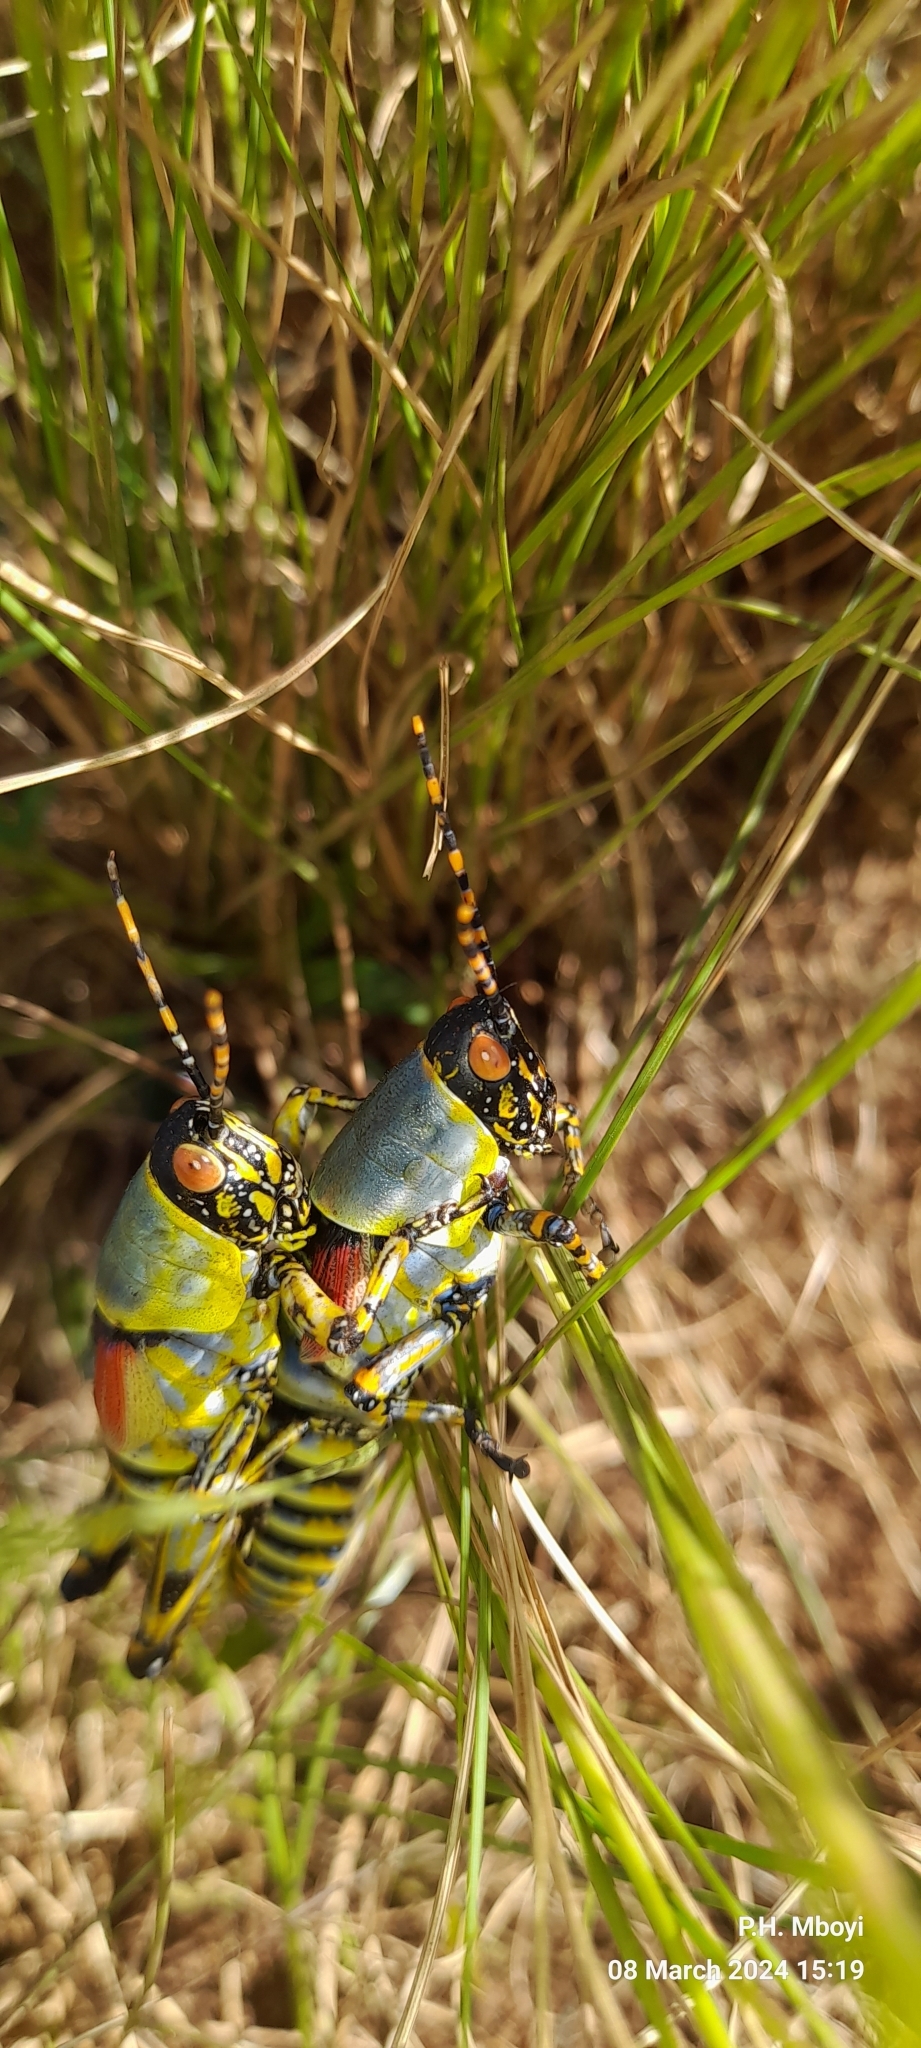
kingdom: Animalia
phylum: Arthropoda
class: Insecta
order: Orthoptera
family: Pyrgomorphidae
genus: Zonocerus
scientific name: Zonocerus elegans
